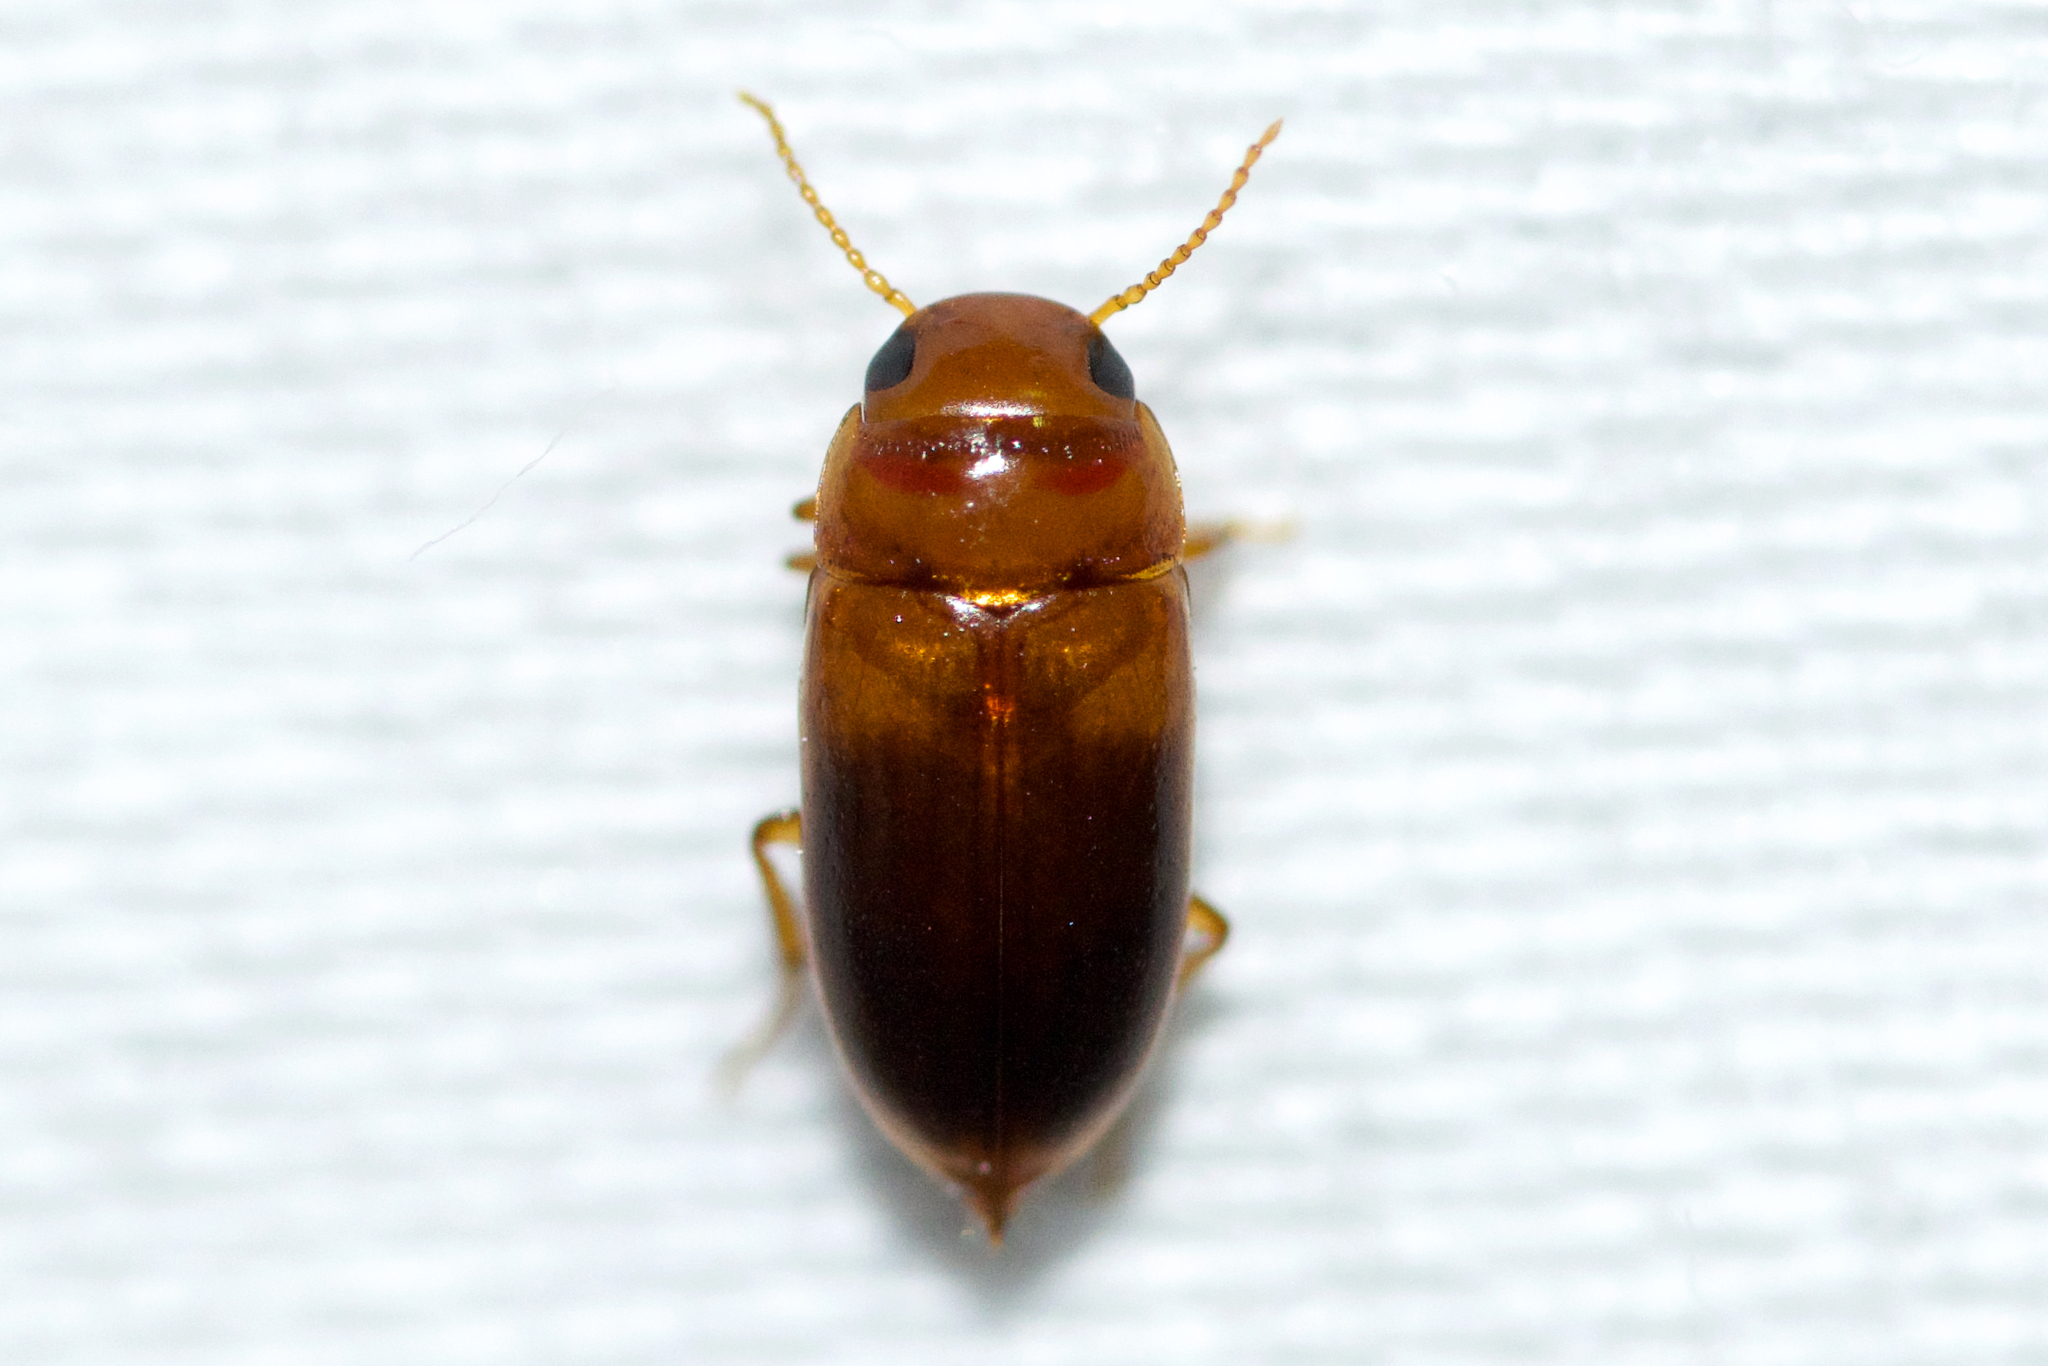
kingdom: Animalia
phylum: Arthropoda
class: Insecta
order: Coleoptera
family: Dytiscidae
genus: Celina
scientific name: Celina hubbelli
